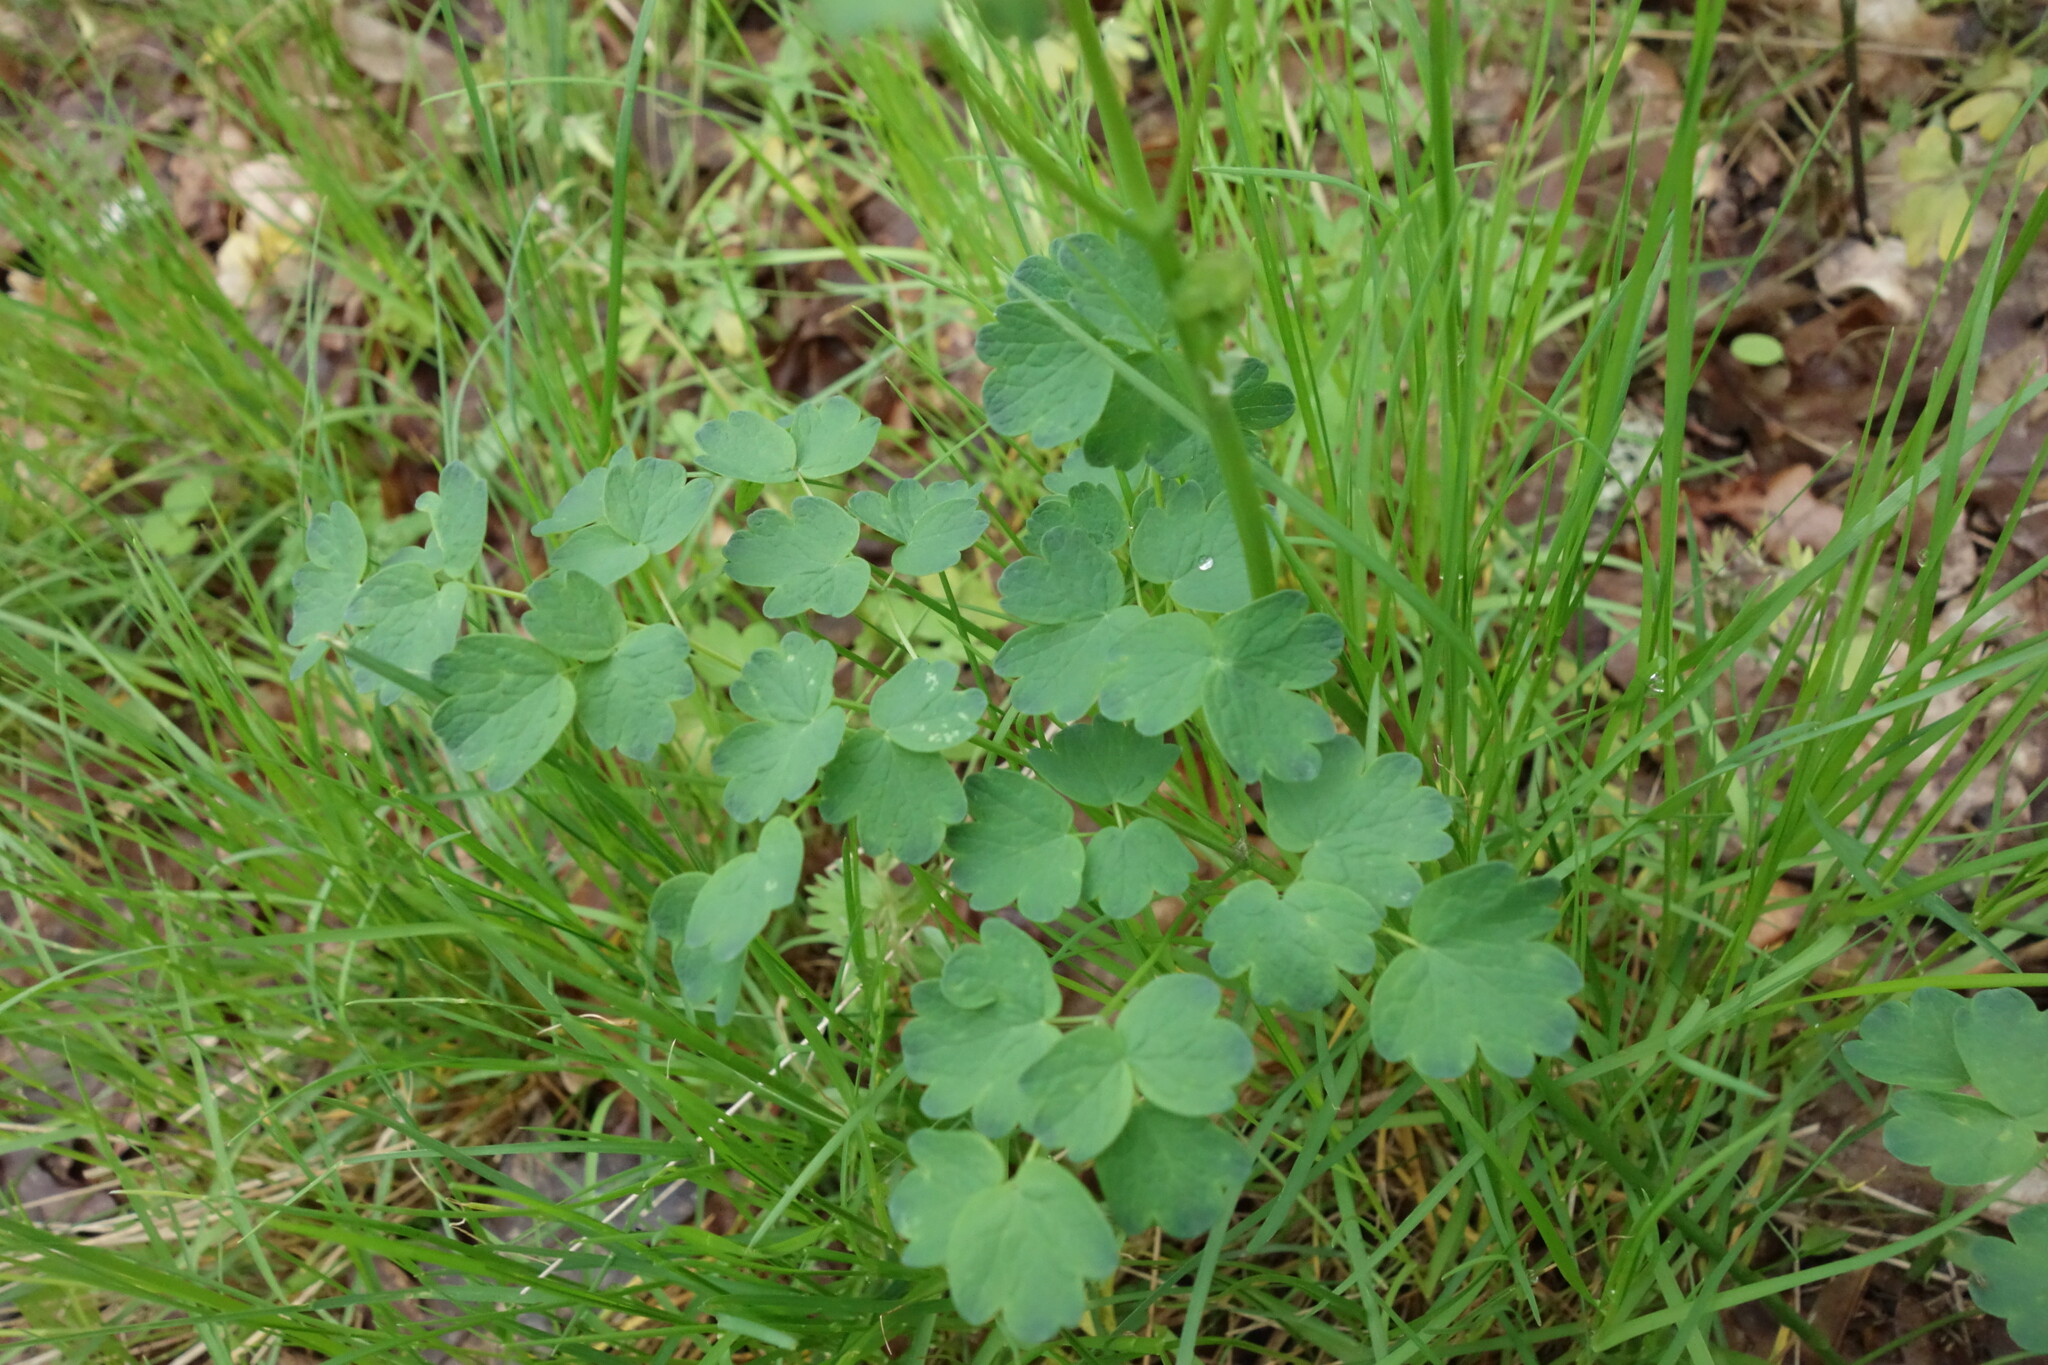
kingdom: Plantae
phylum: Tracheophyta
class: Magnoliopsida
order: Ranunculales
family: Ranunculaceae
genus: Thalictrum
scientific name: Thalictrum minus
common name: Lesser meadow-rue
